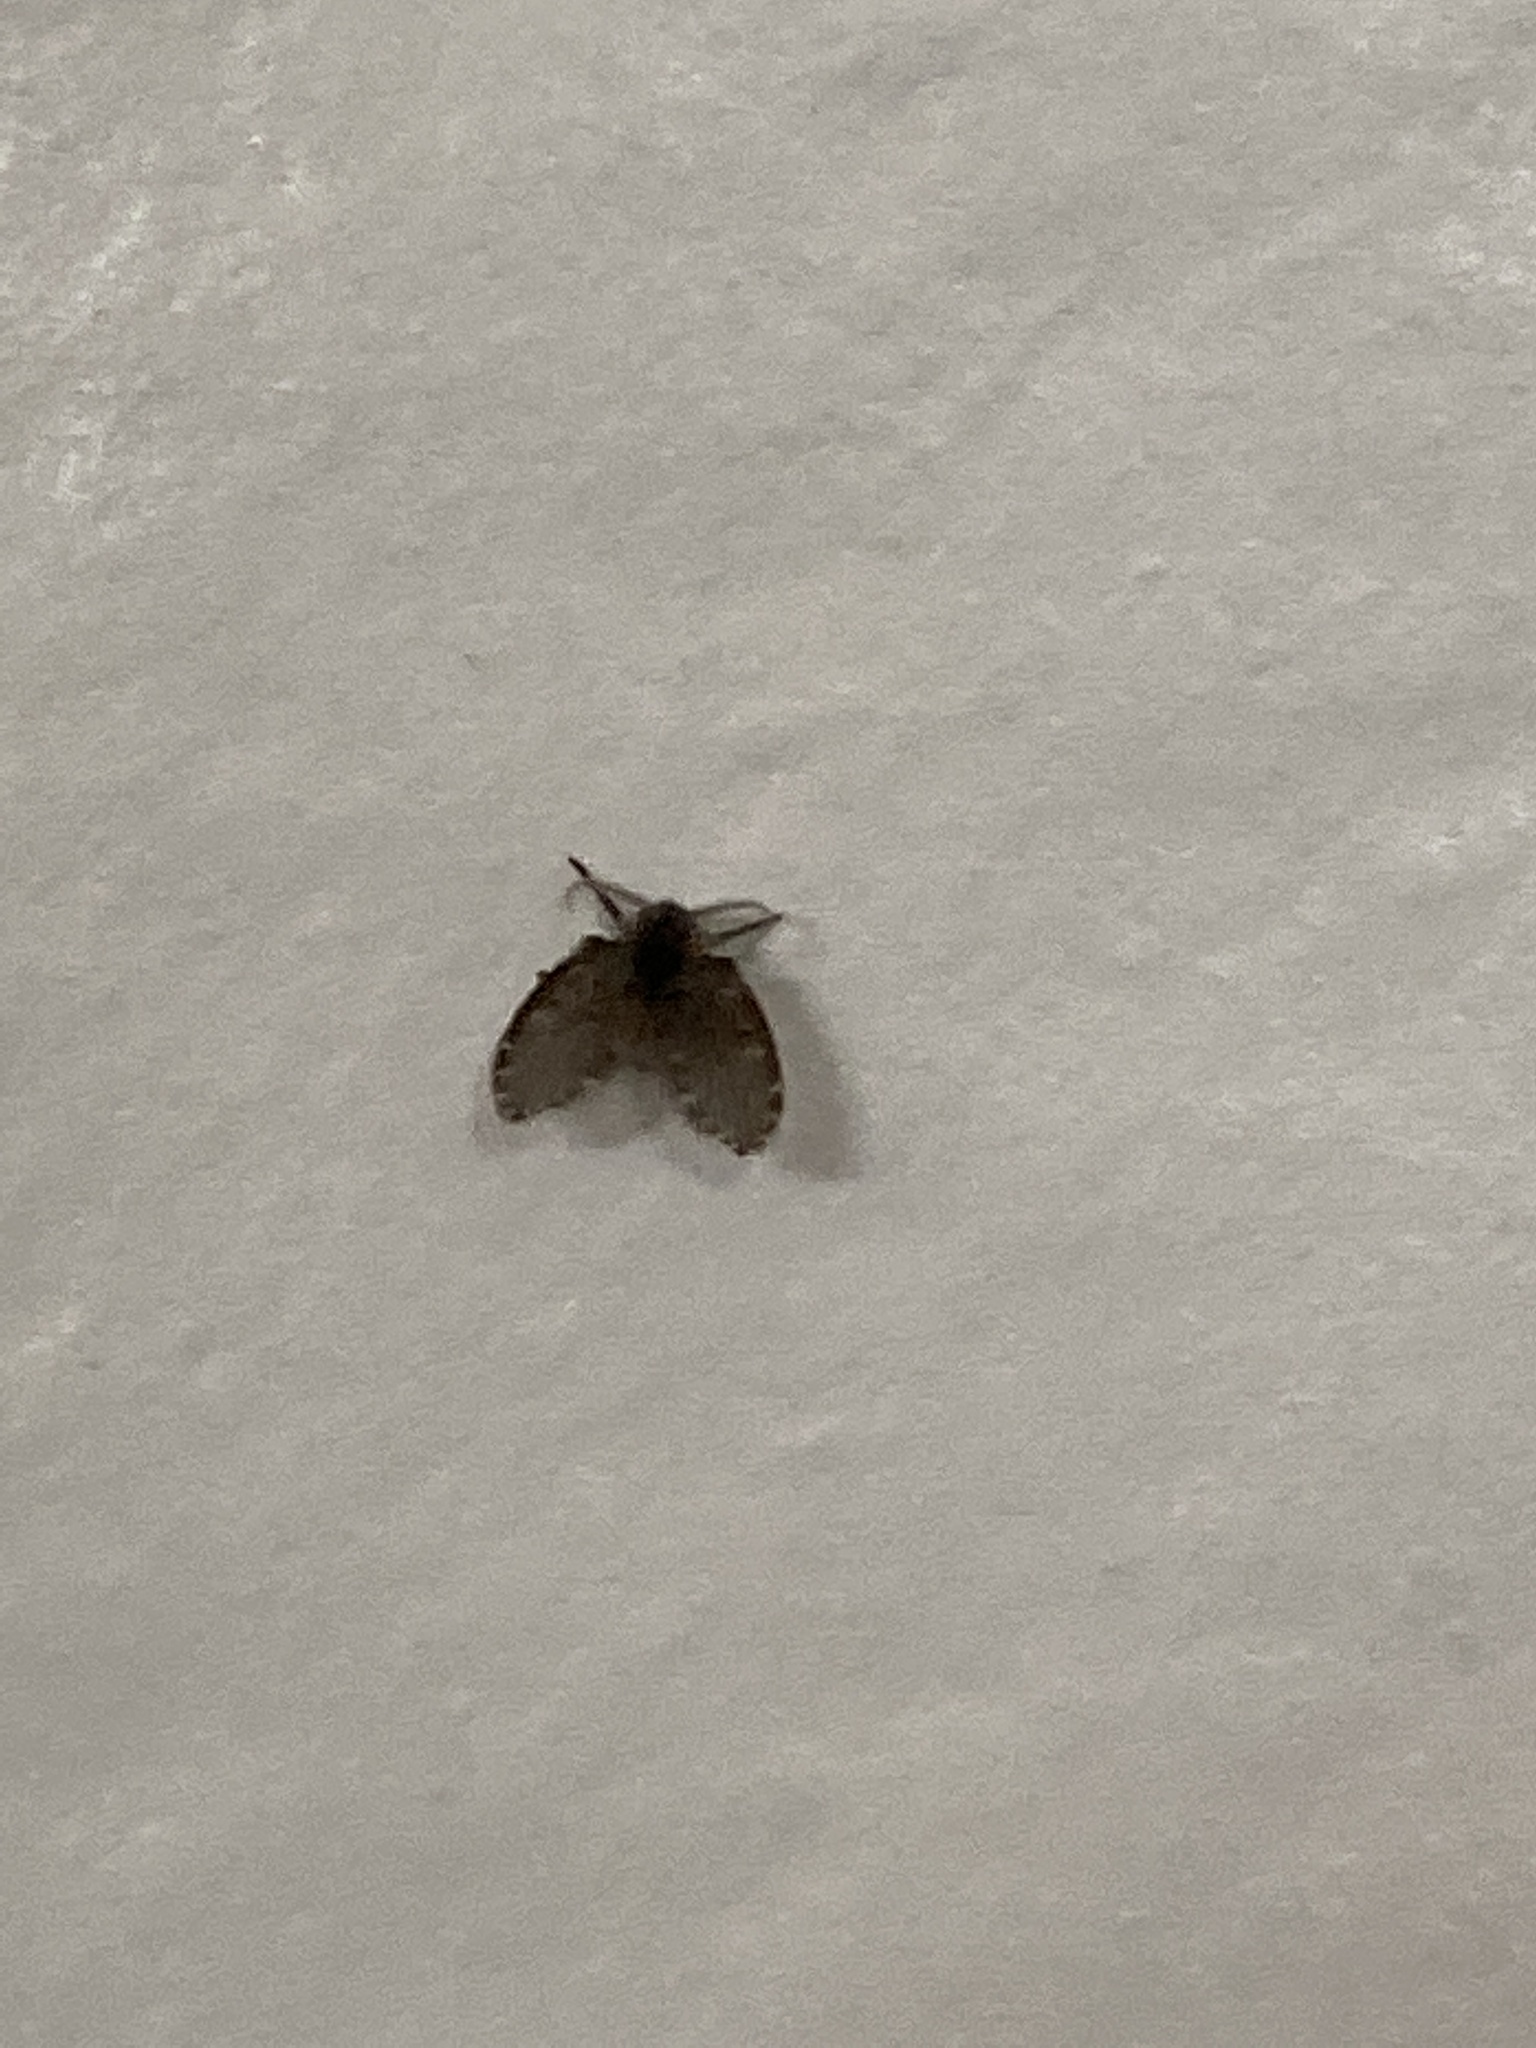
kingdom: Animalia
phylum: Arthropoda
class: Insecta
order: Diptera
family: Psychodidae
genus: Clogmia
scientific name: Clogmia albipunctatus
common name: White-spotted moth fly
